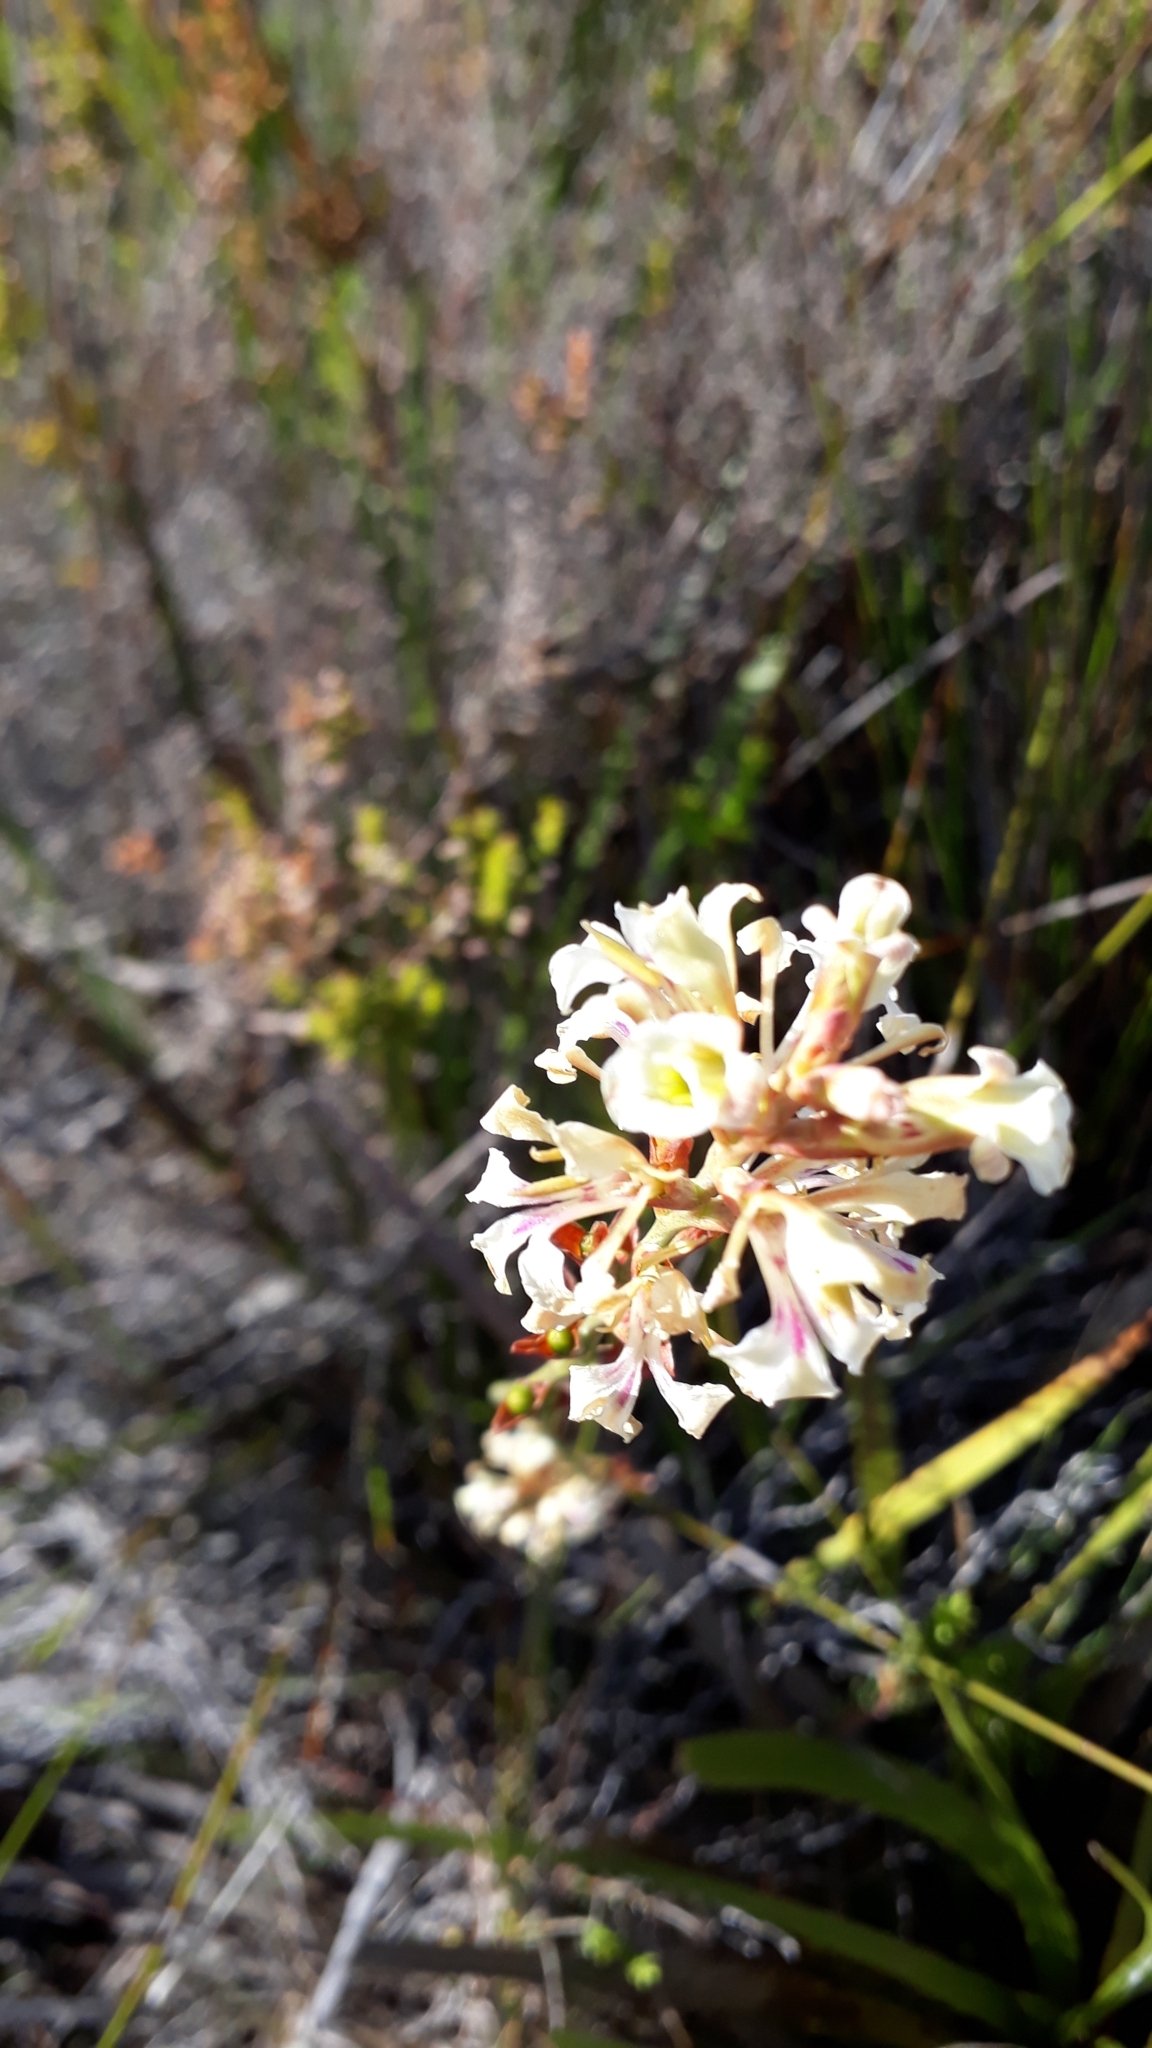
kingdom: Plantae
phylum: Tracheophyta
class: Liliopsida
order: Asparagales
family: Iridaceae
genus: Tritoniopsis
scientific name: Tritoniopsis unguicularis
